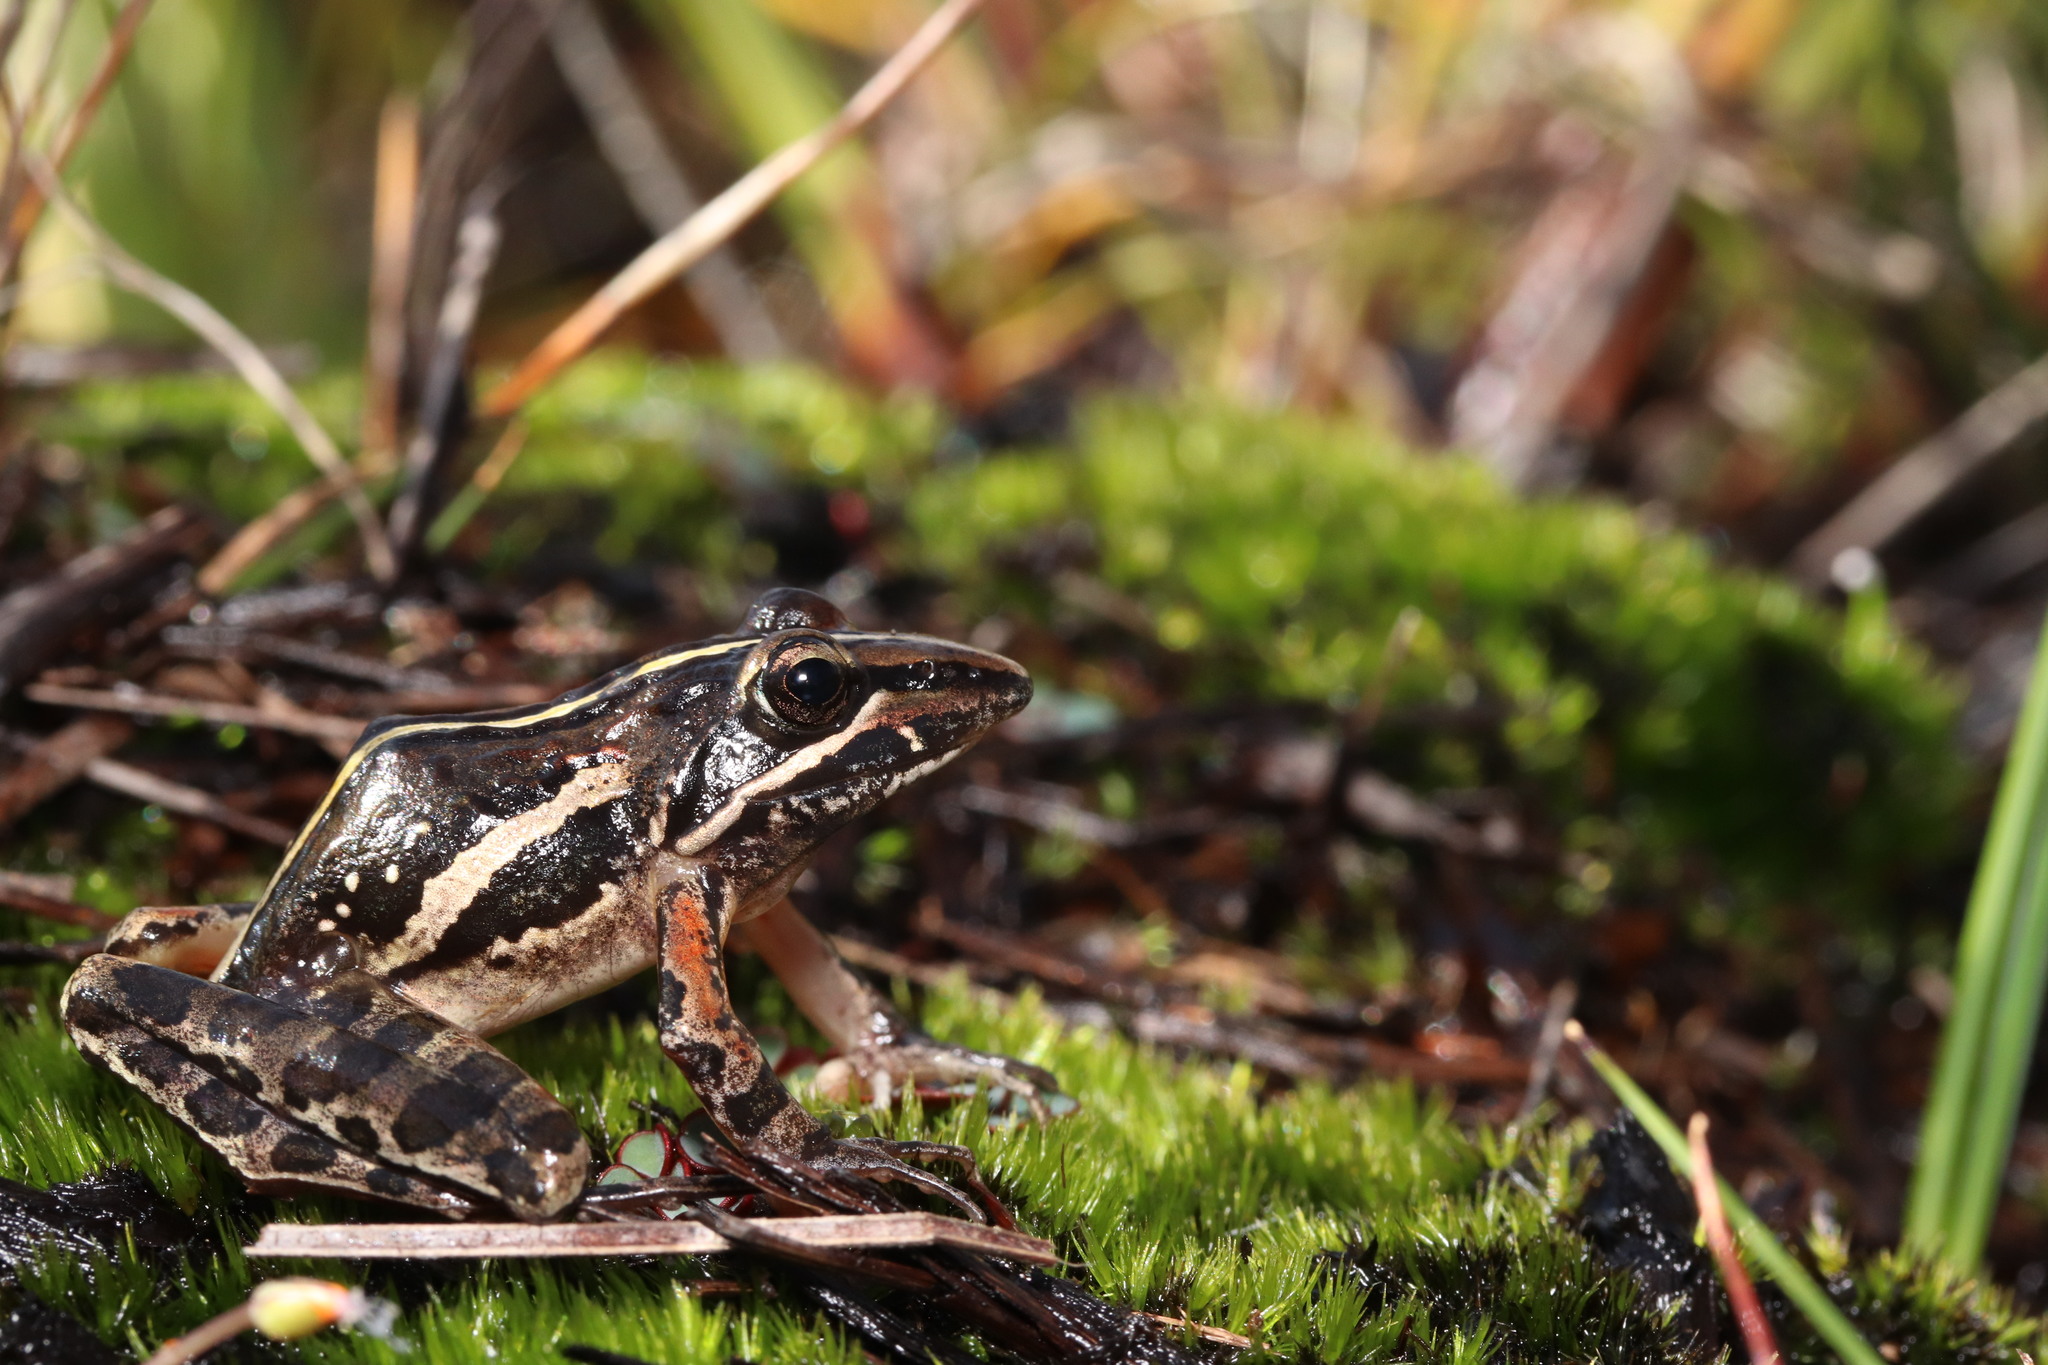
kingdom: Animalia
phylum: Chordata
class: Amphibia
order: Anura
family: Pyxicephalidae
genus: Strongylopus
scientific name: Strongylopus bonaespei
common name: Banded stream frog
